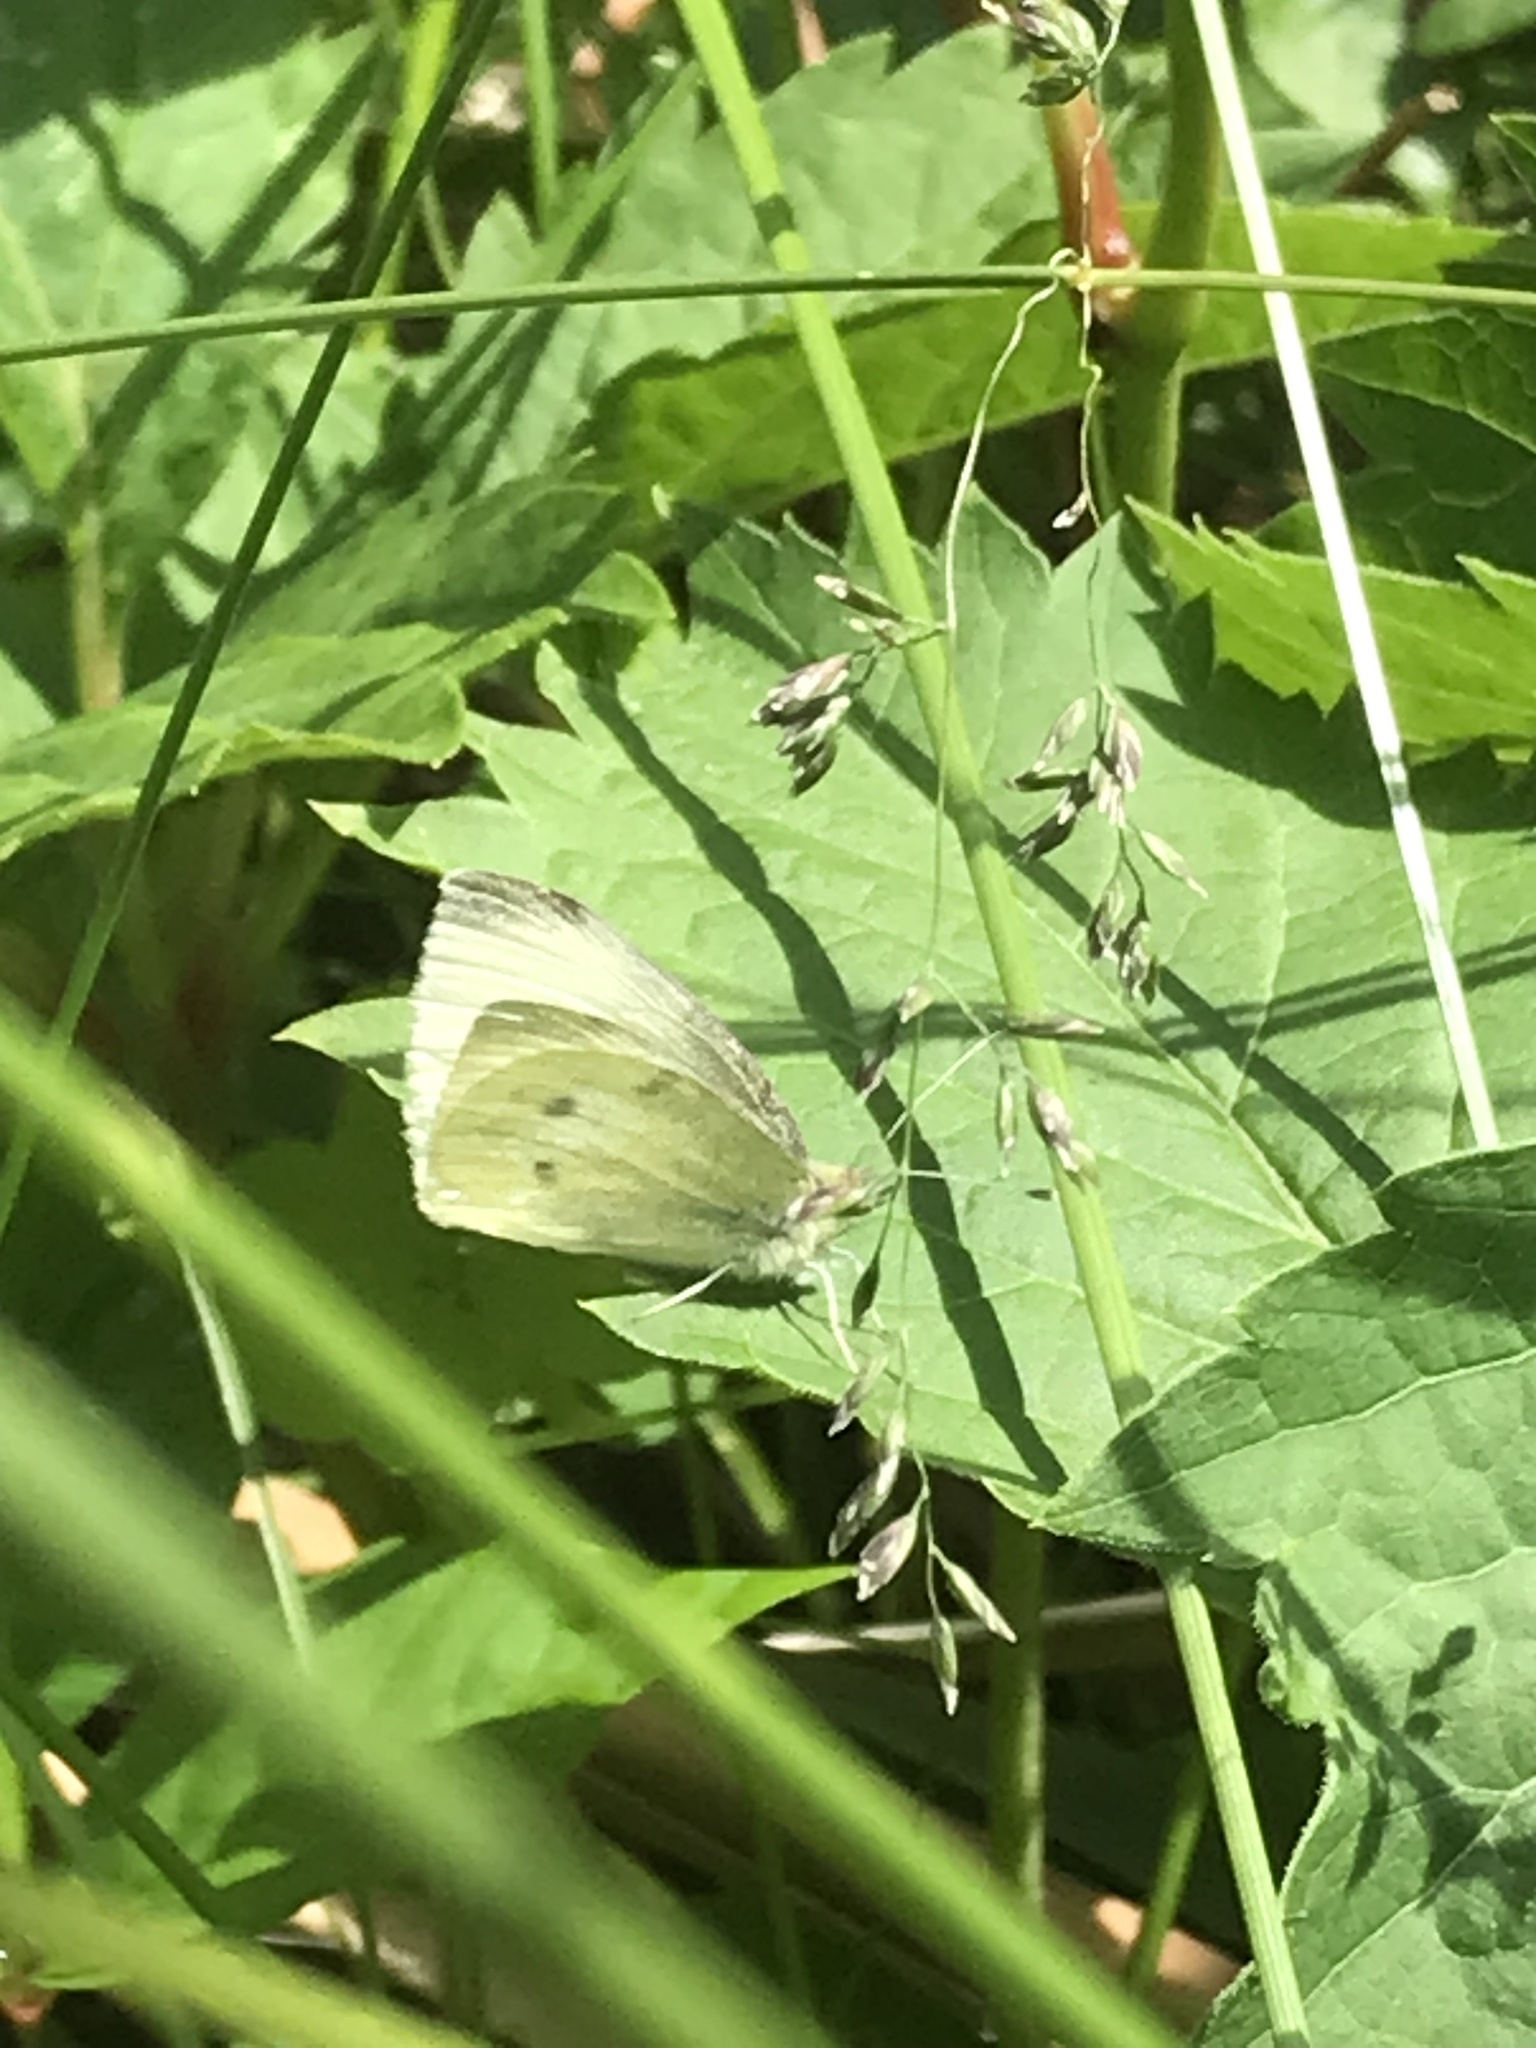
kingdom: Animalia
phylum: Arthropoda
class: Insecta
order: Lepidoptera
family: Pieridae
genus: Pieris
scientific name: Pieris rapae
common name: Small white
